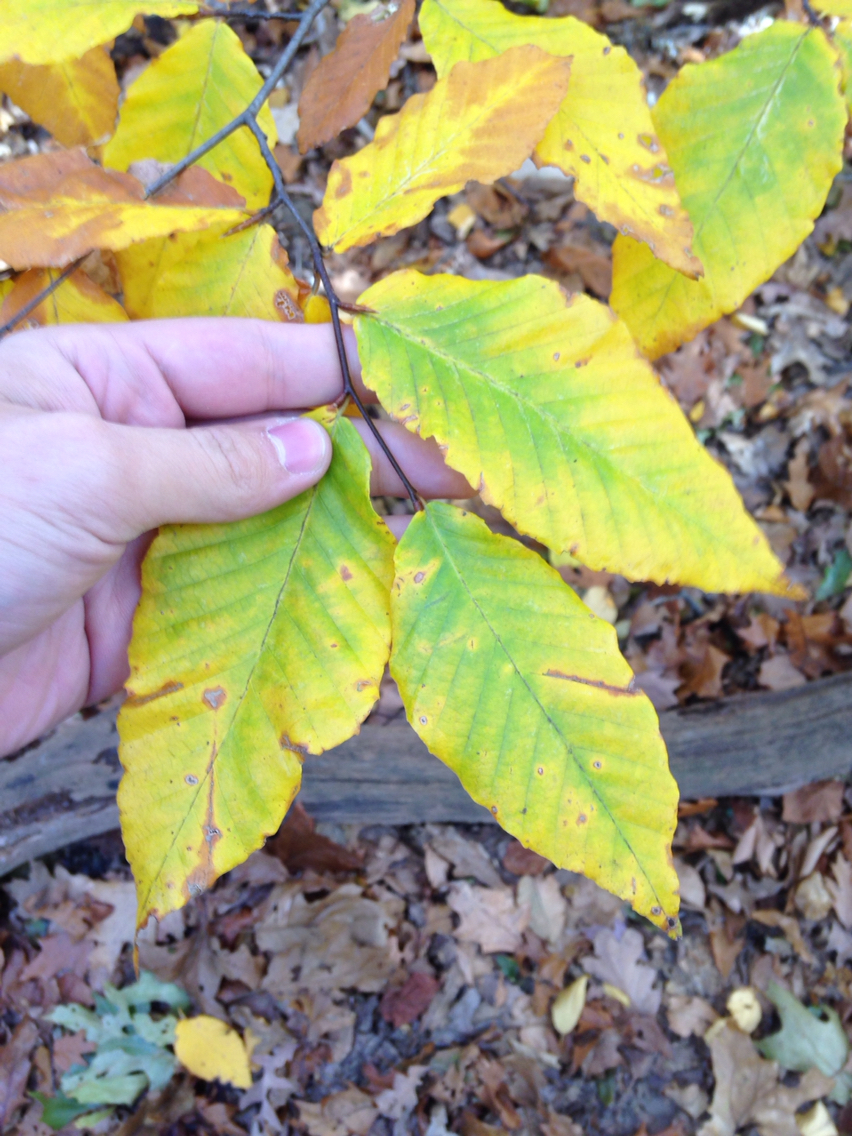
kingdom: Plantae
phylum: Tracheophyta
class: Magnoliopsida
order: Fagales
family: Fagaceae
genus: Fagus
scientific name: Fagus grandifolia
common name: American beech
